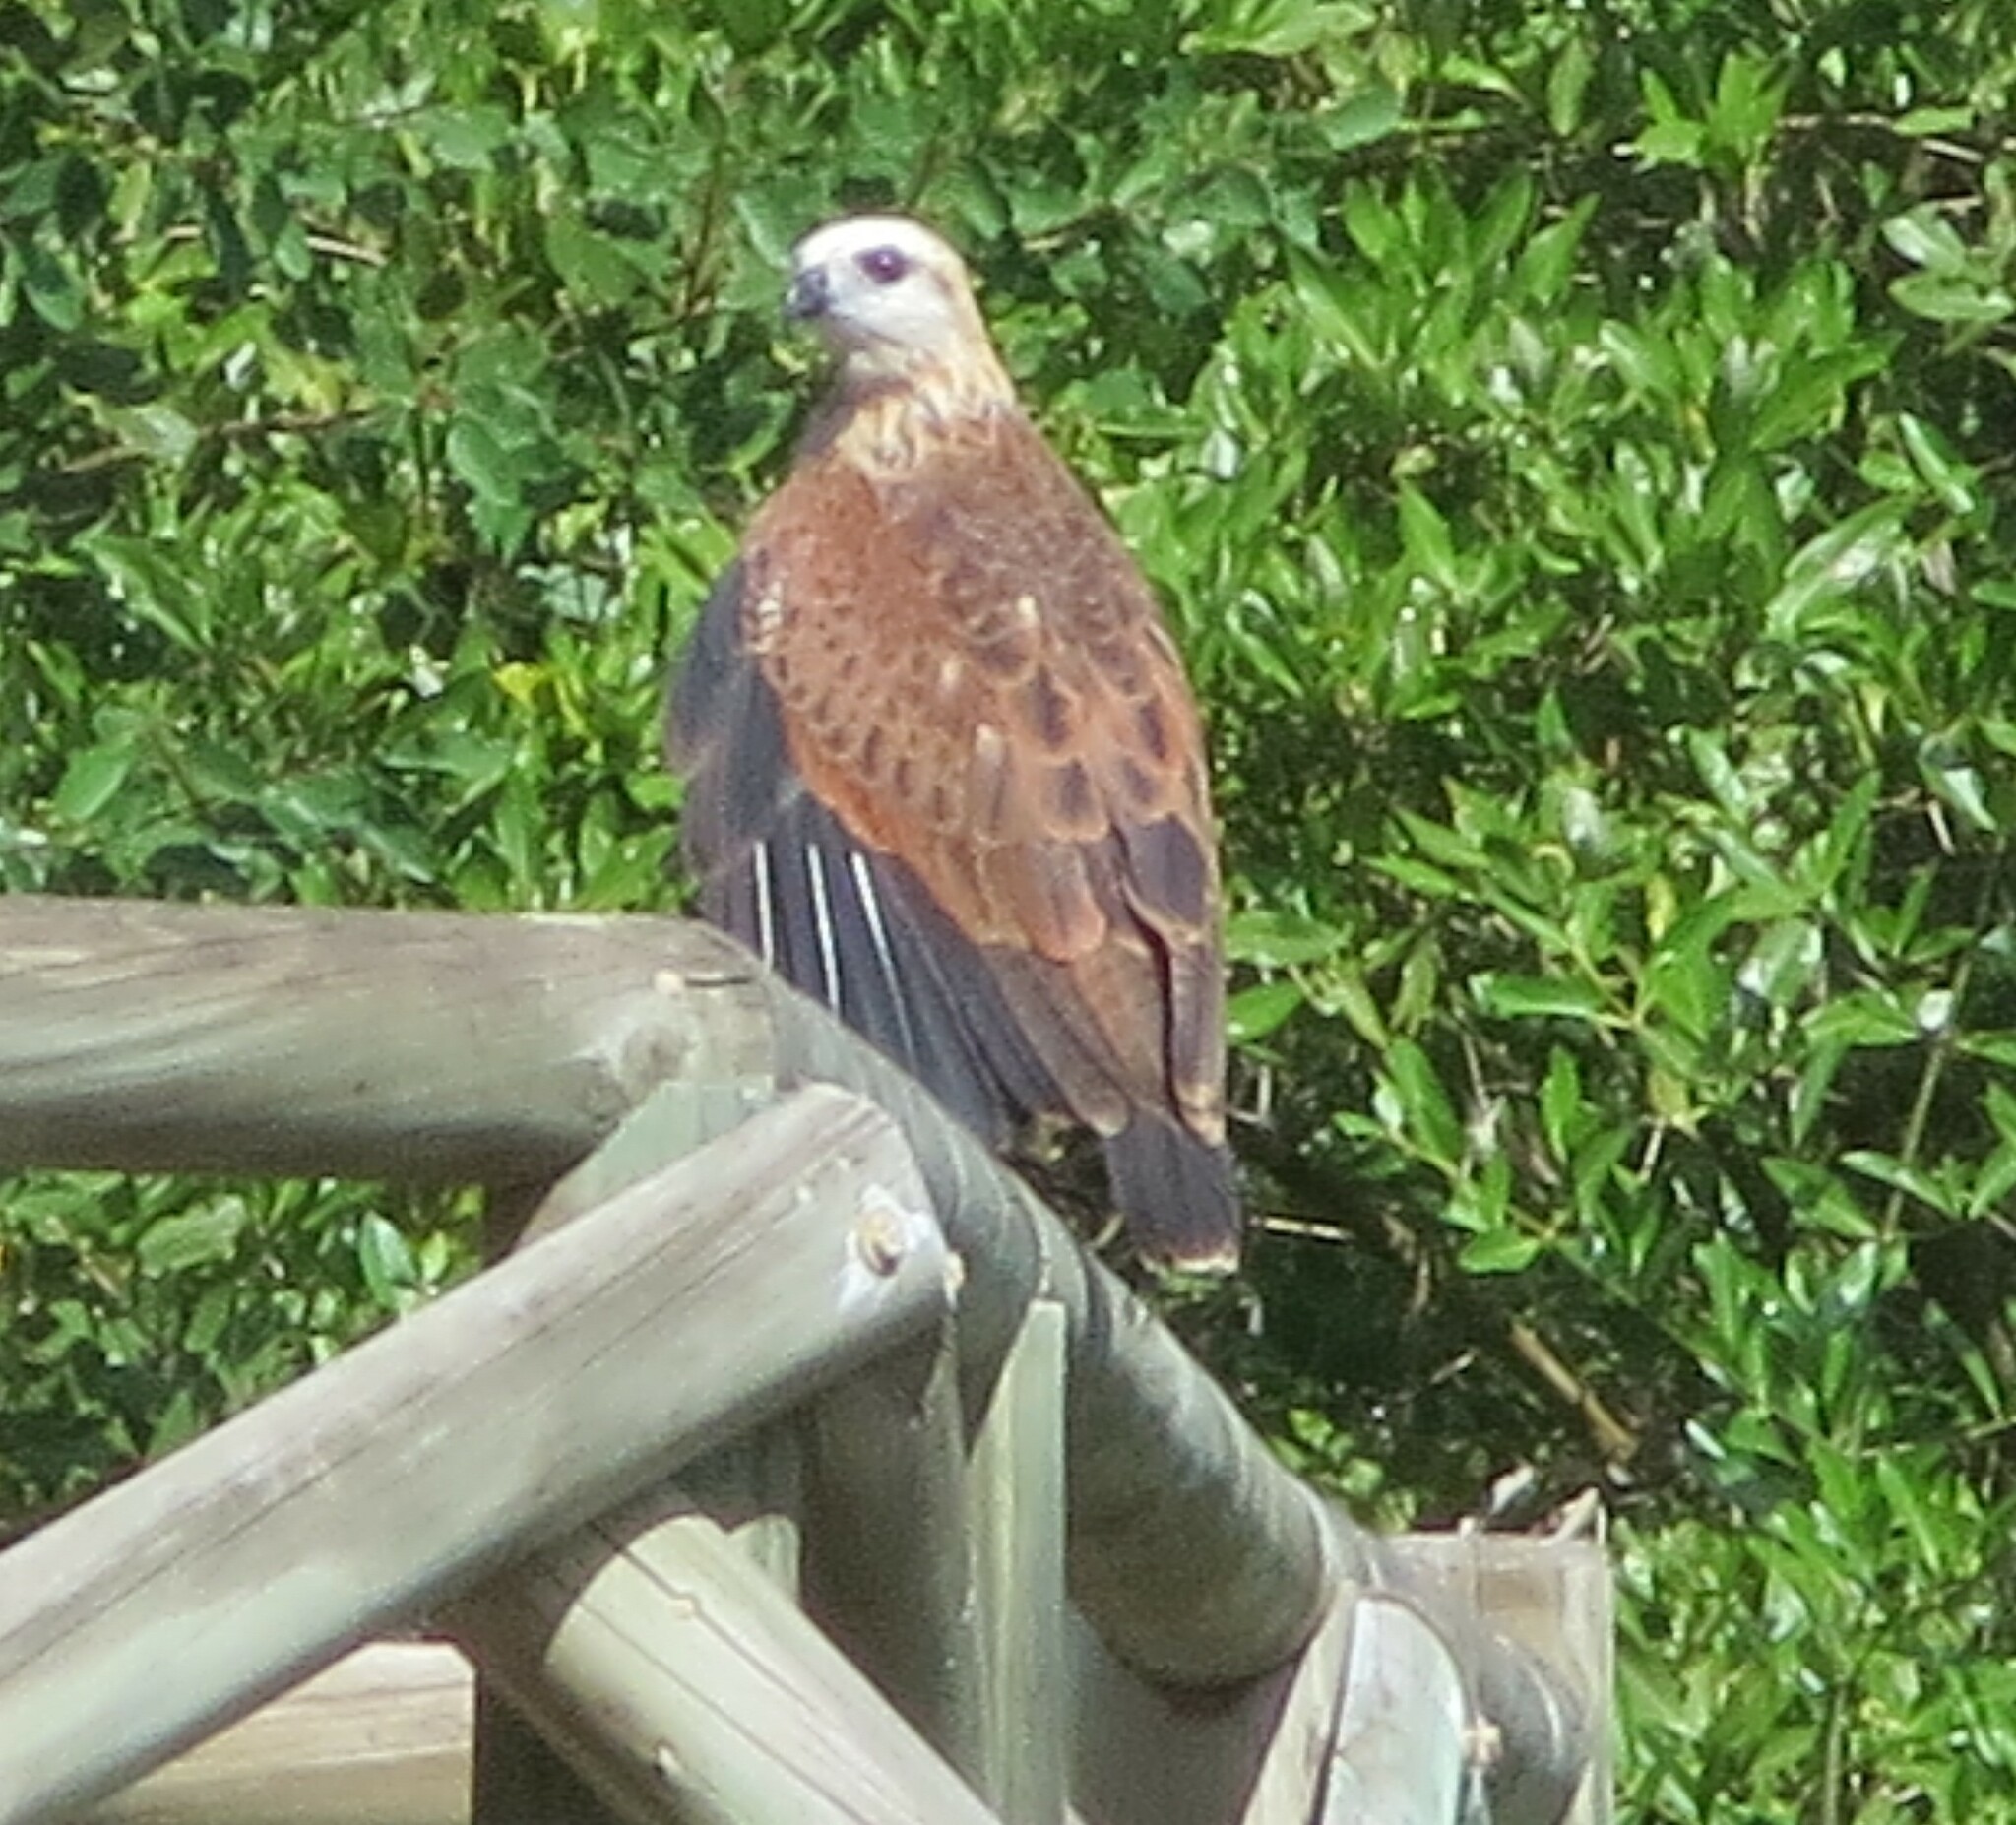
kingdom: Animalia
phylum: Chordata
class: Aves
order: Accipitriformes
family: Accipitridae
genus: Busarellus
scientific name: Busarellus nigricollis
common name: Black-collared hawk
